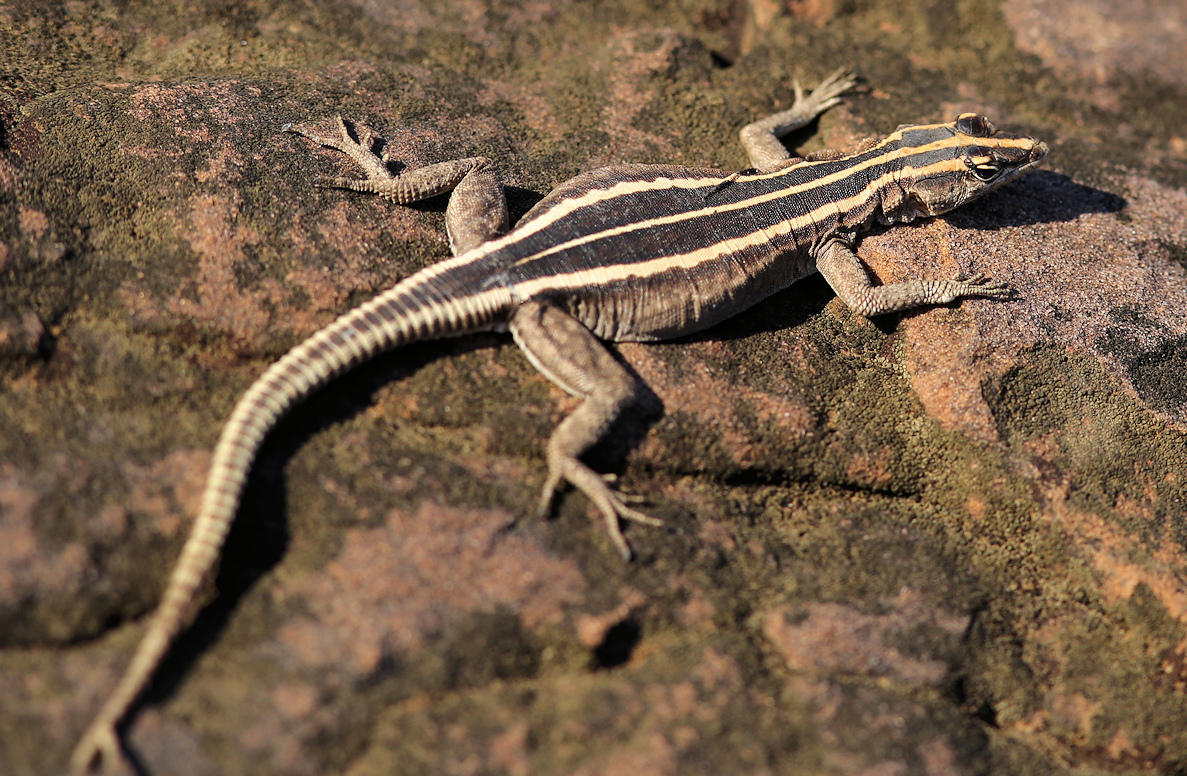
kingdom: Animalia
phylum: Chordata
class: Squamata
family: Cordylidae
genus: Platysaurus
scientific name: Platysaurus intermedius
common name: Common flat lizard
